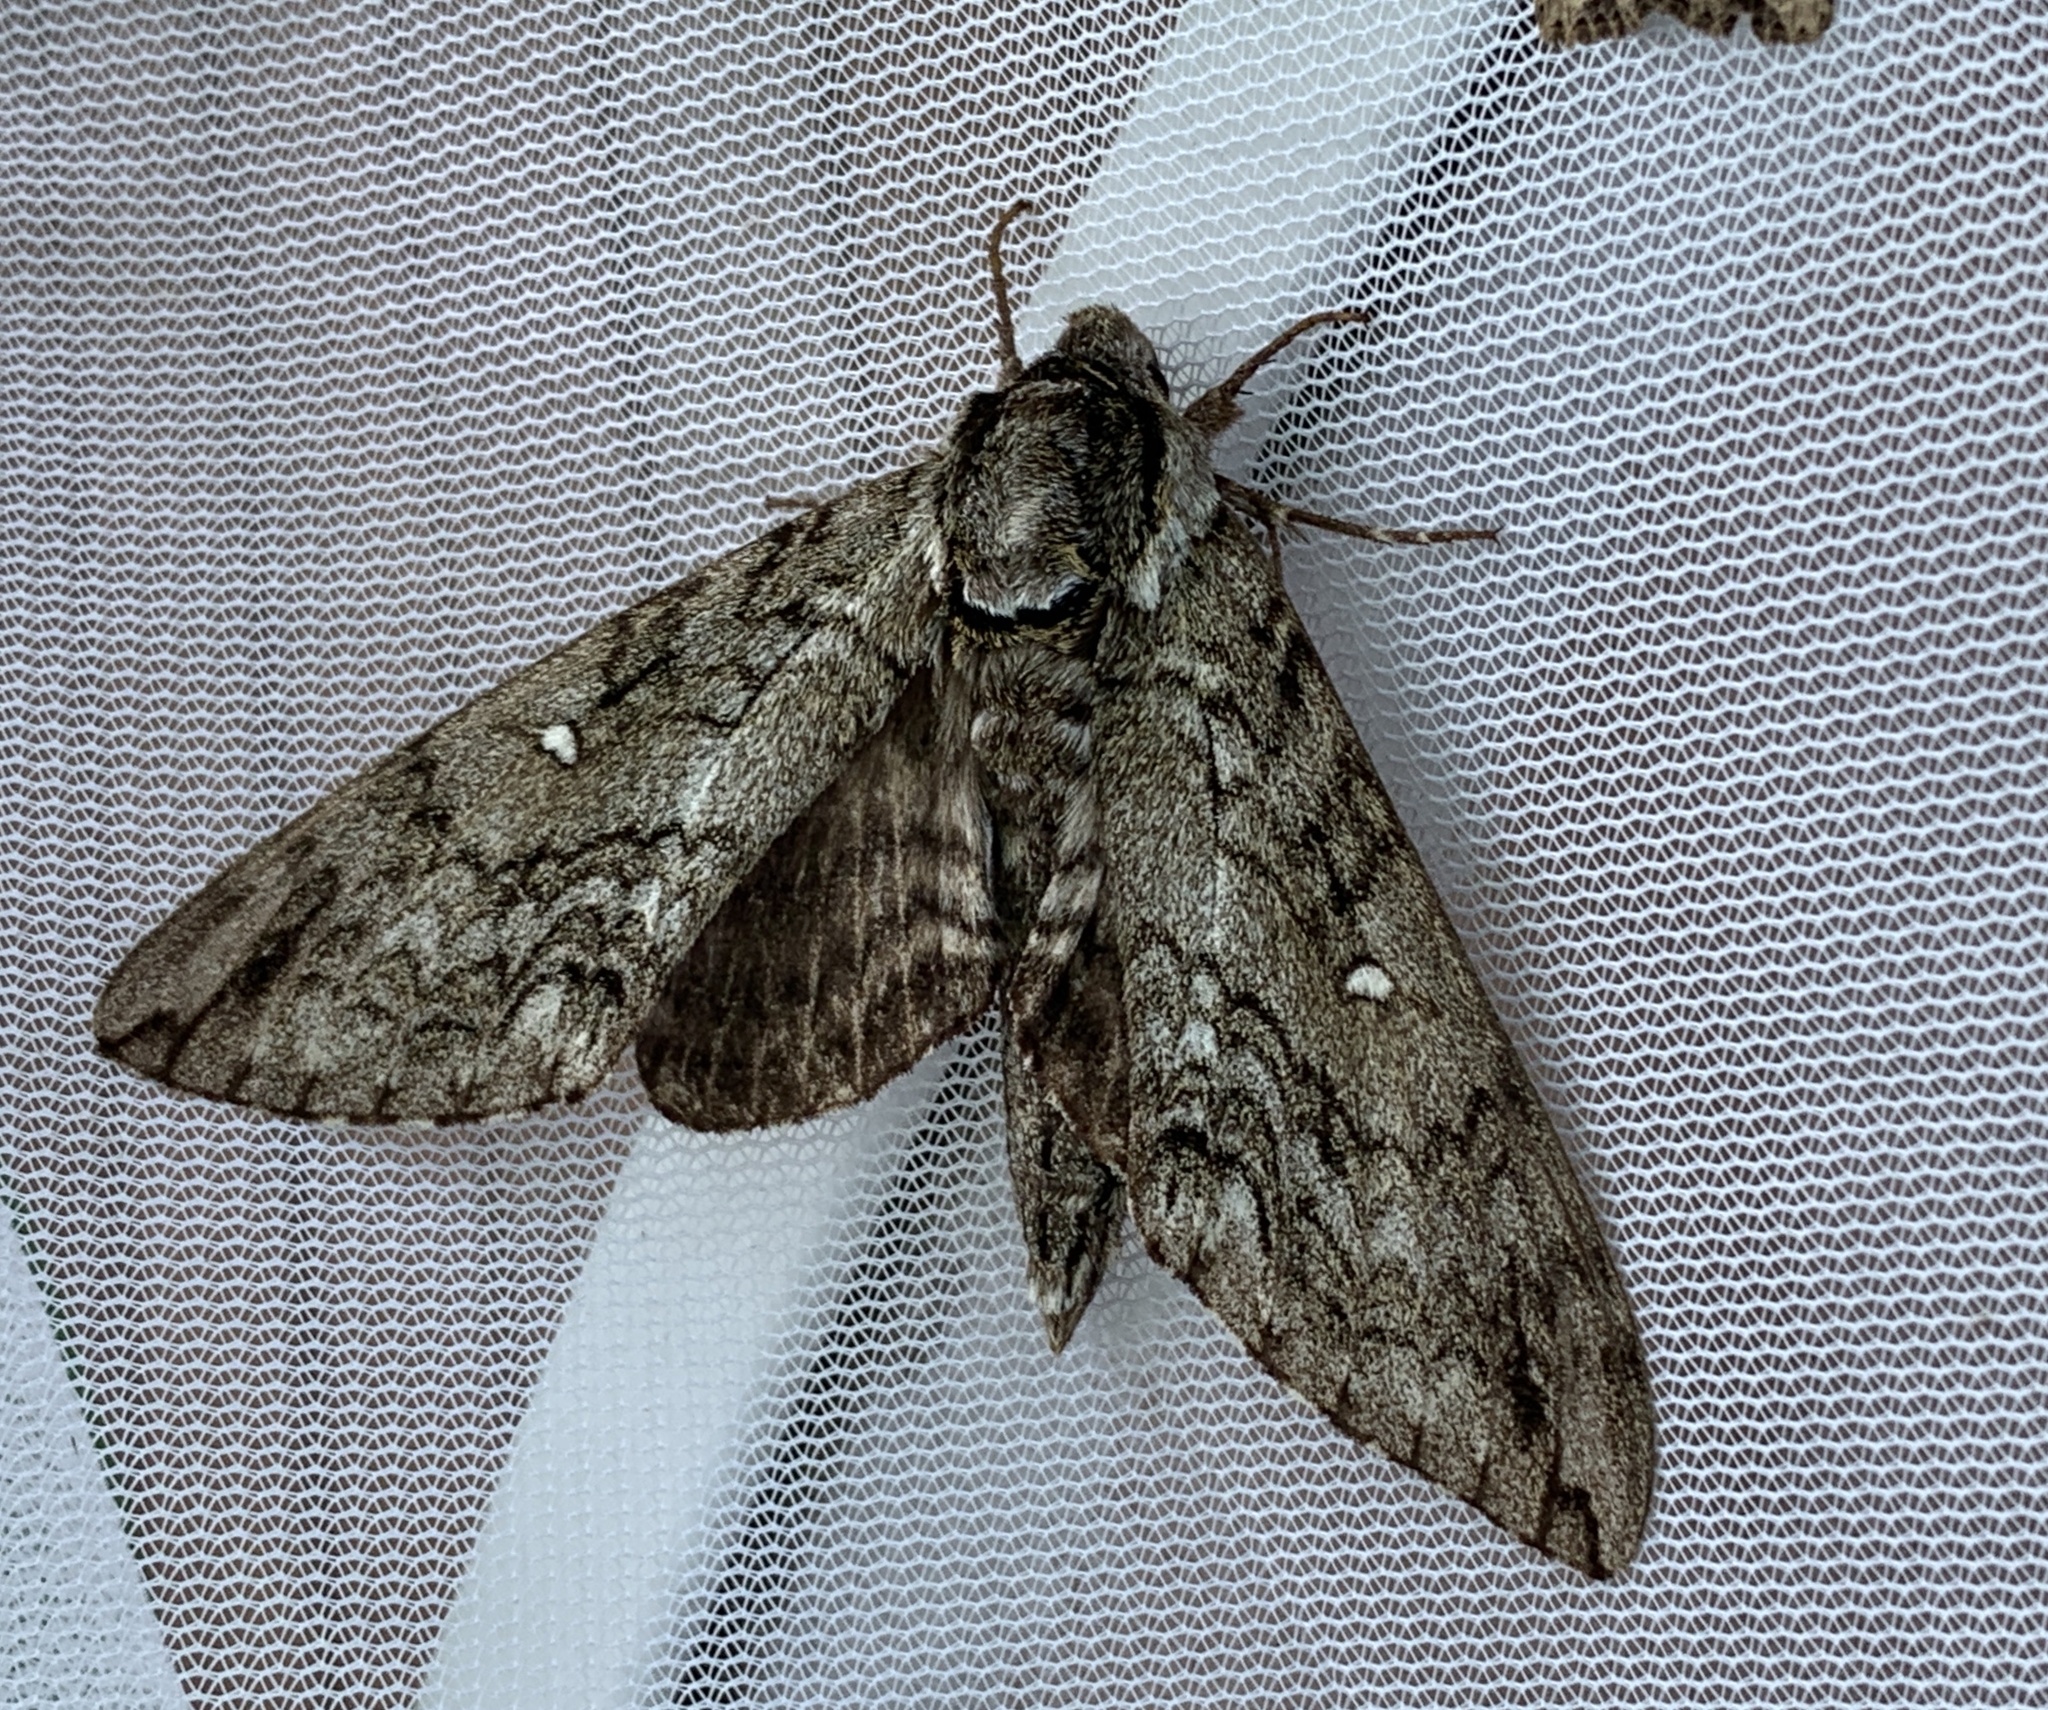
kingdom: Animalia
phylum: Arthropoda
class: Insecta
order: Lepidoptera
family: Sphingidae
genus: Ceratomia
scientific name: Ceratomia undulosa
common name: Waved sphinx
